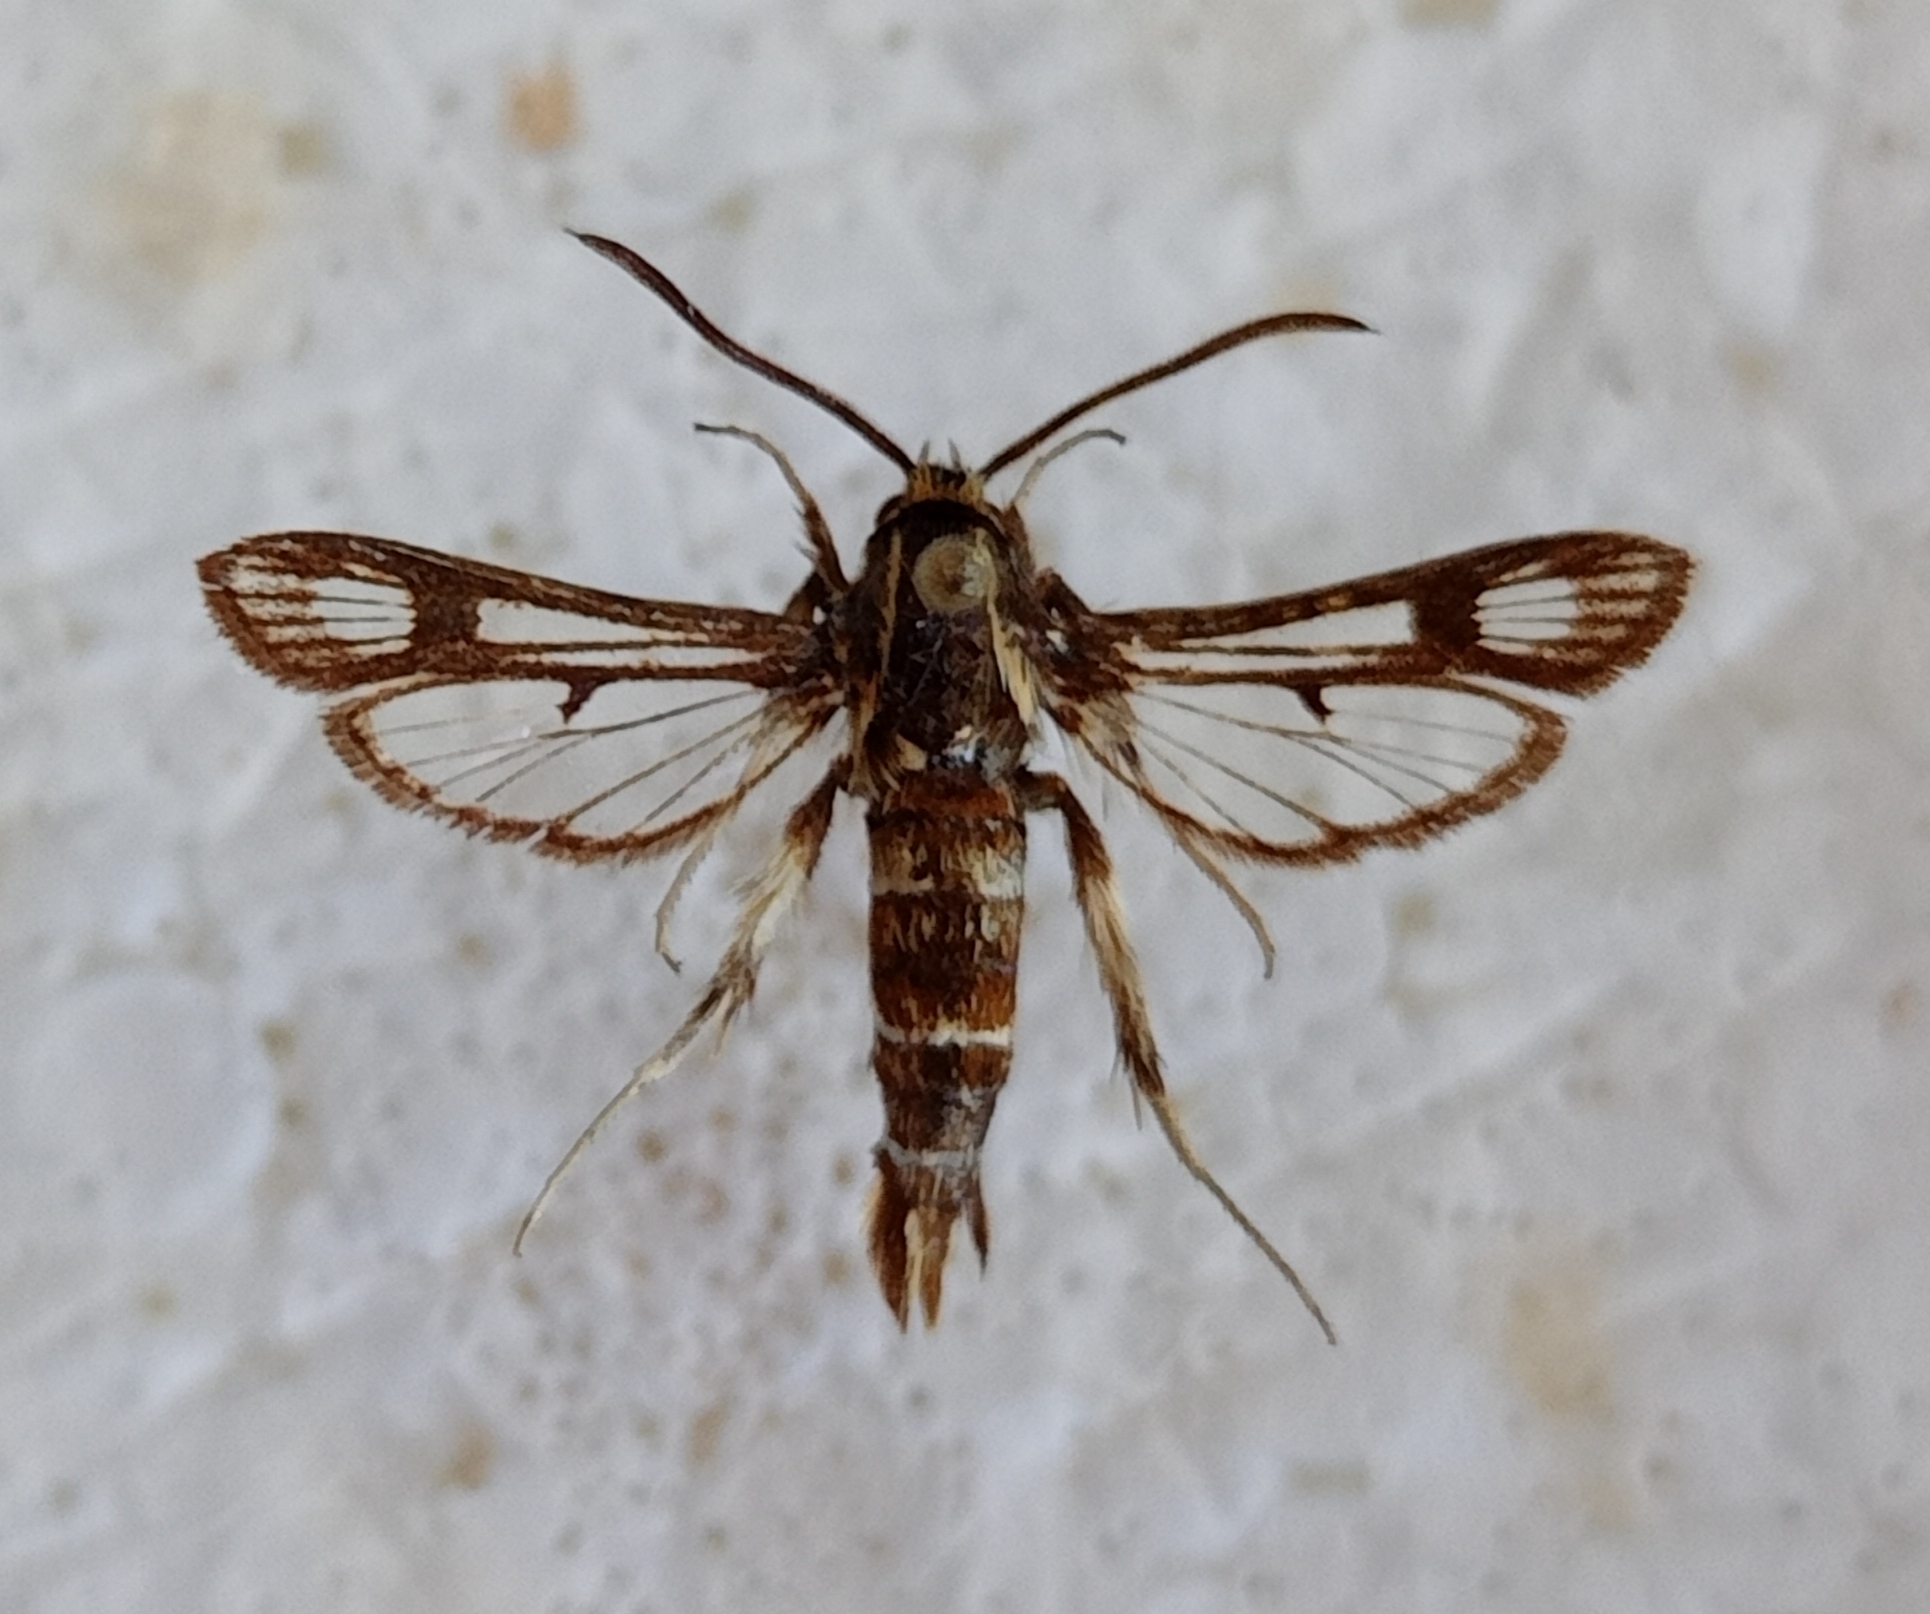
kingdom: Animalia
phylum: Arthropoda
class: Insecta
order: Lepidoptera
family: Sesiidae
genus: Chamaesphecia
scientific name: Chamaesphecia doleriformis
